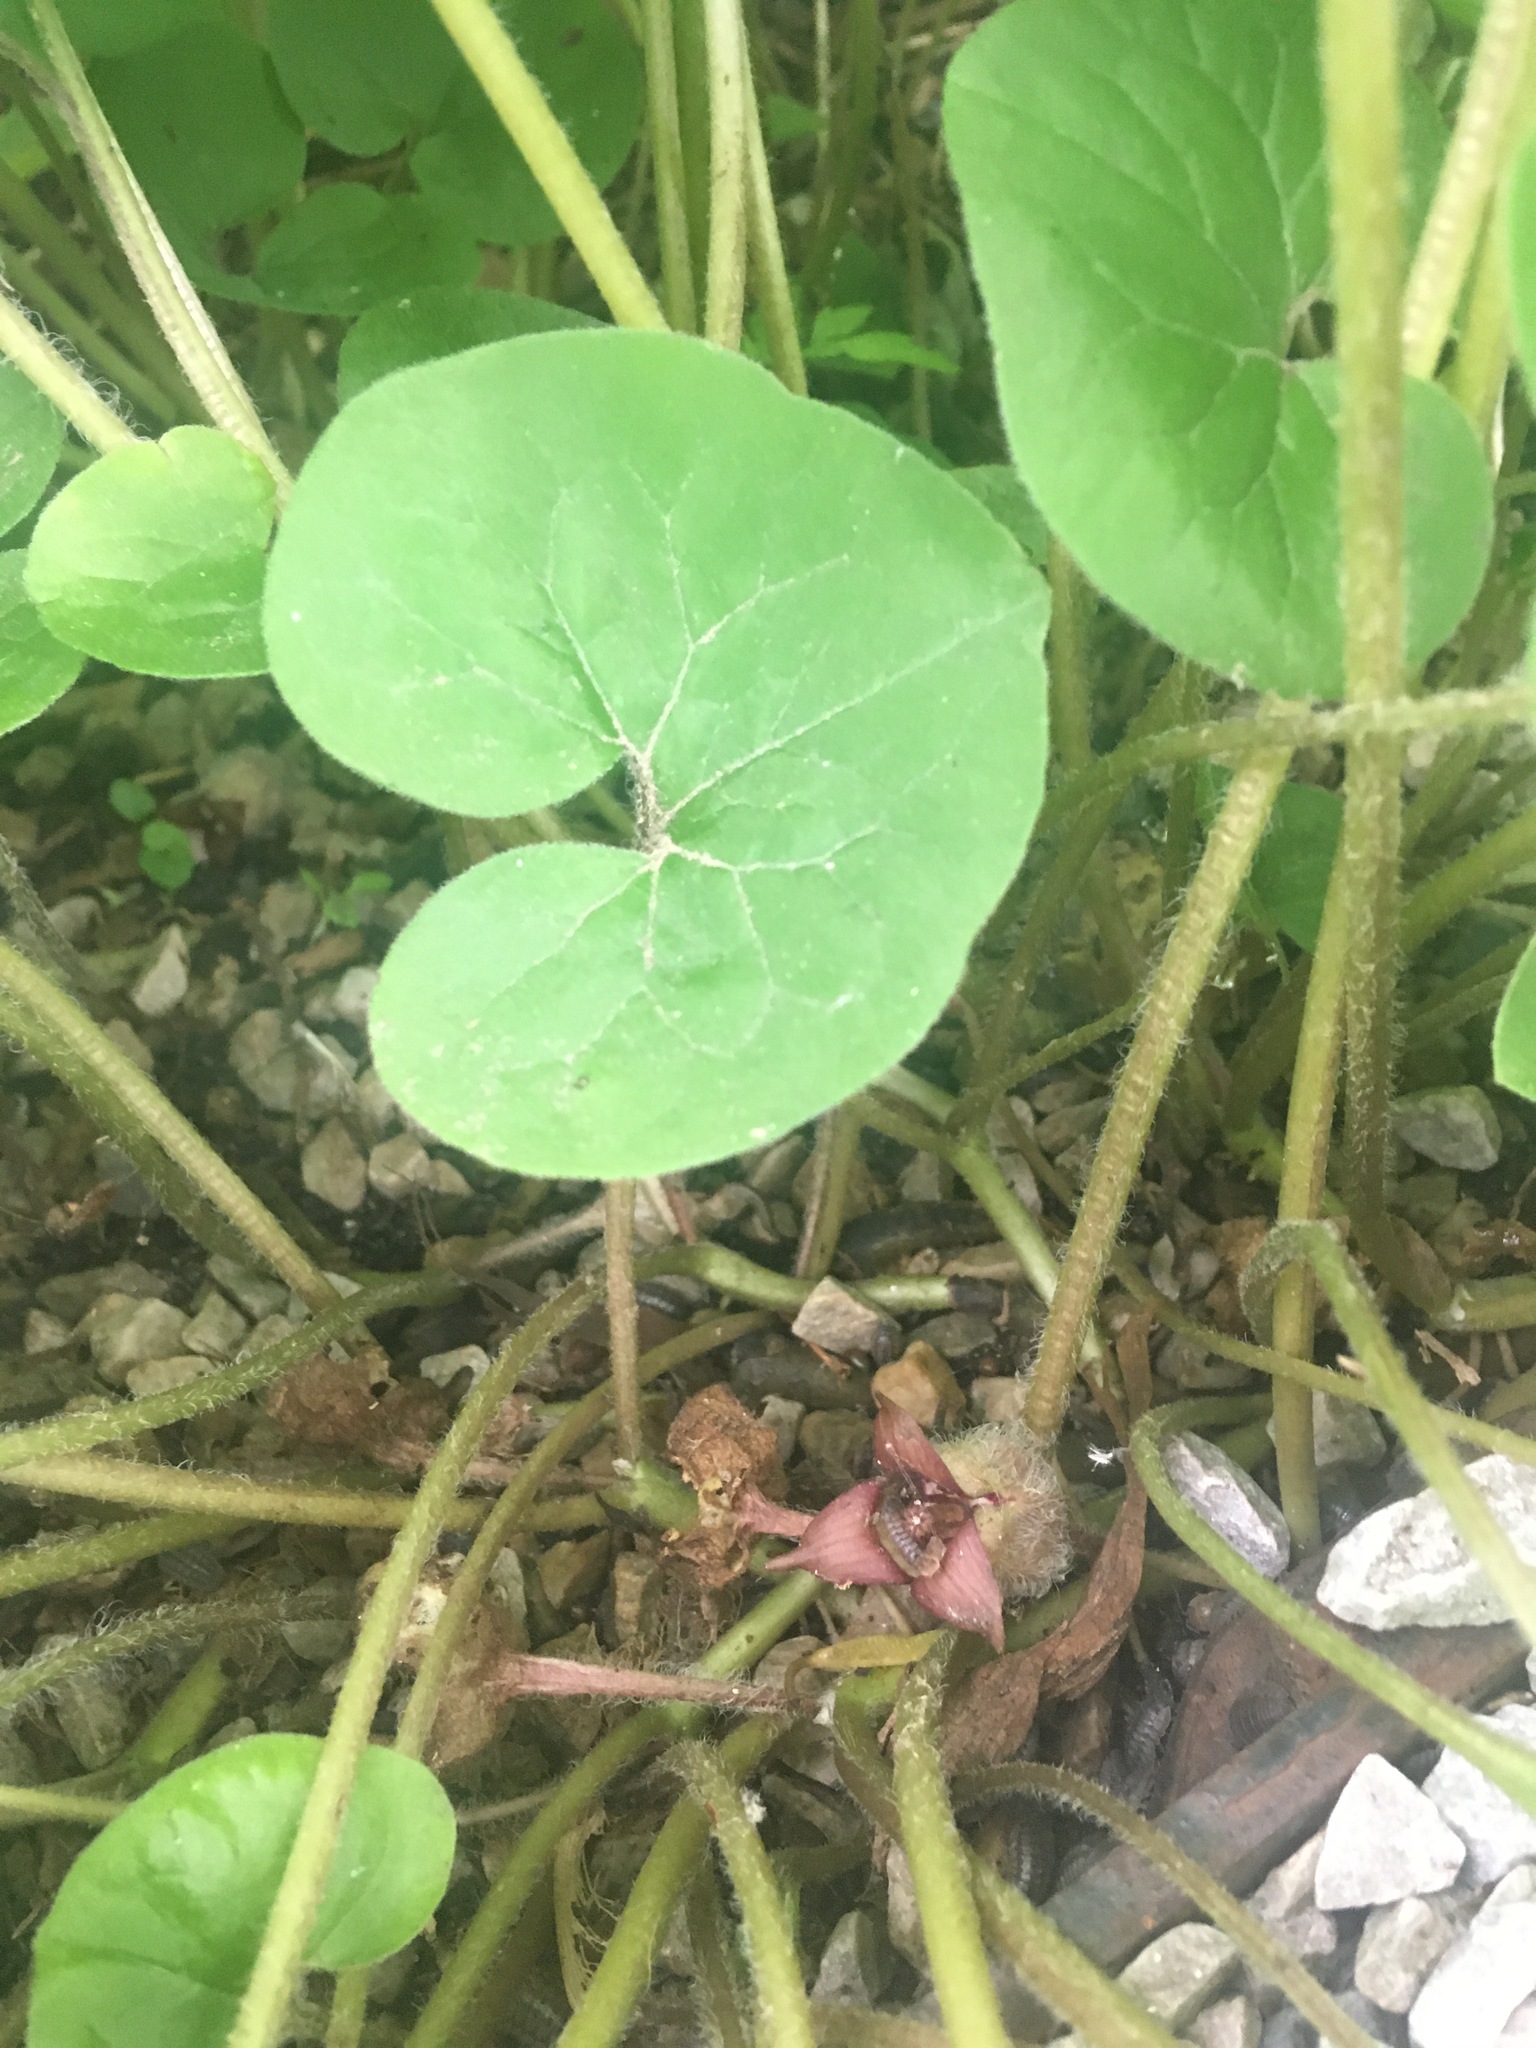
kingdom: Plantae
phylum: Tracheophyta
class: Magnoliopsida
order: Piperales
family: Aristolochiaceae
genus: Asarum
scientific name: Asarum canadense
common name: Wild ginger
